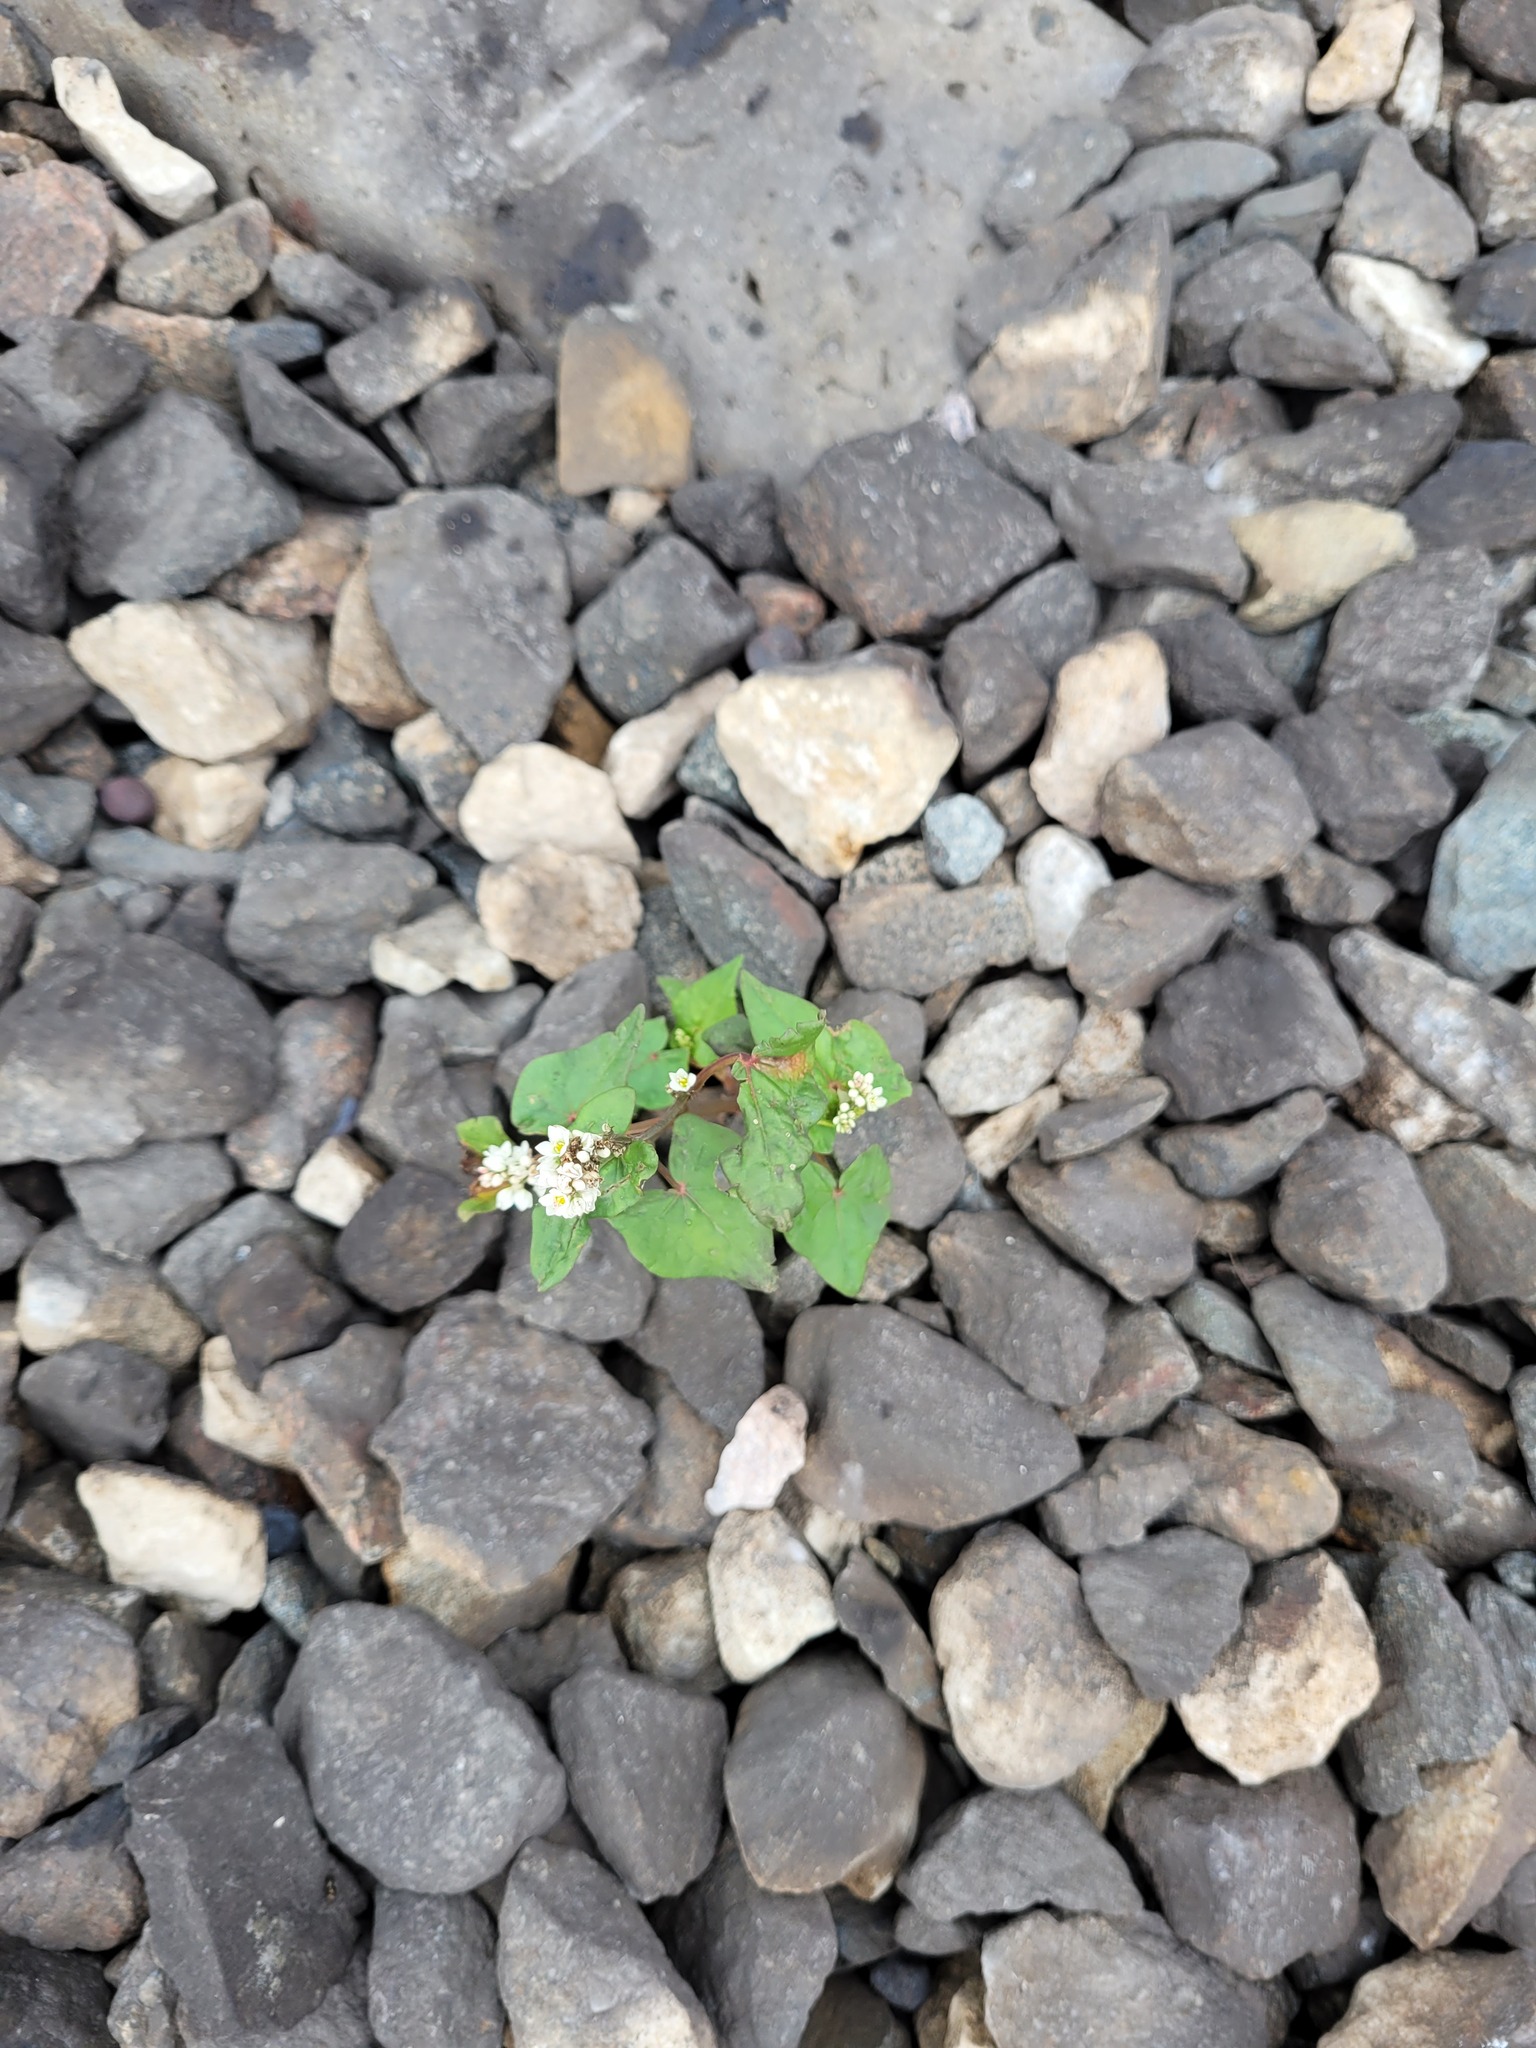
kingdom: Plantae
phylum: Tracheophyta
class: Magnoliopsida
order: Caryophyllales
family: Polygonaceae
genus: Fagopyrum
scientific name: Fagopyrum esculentum
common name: Buckwheat
